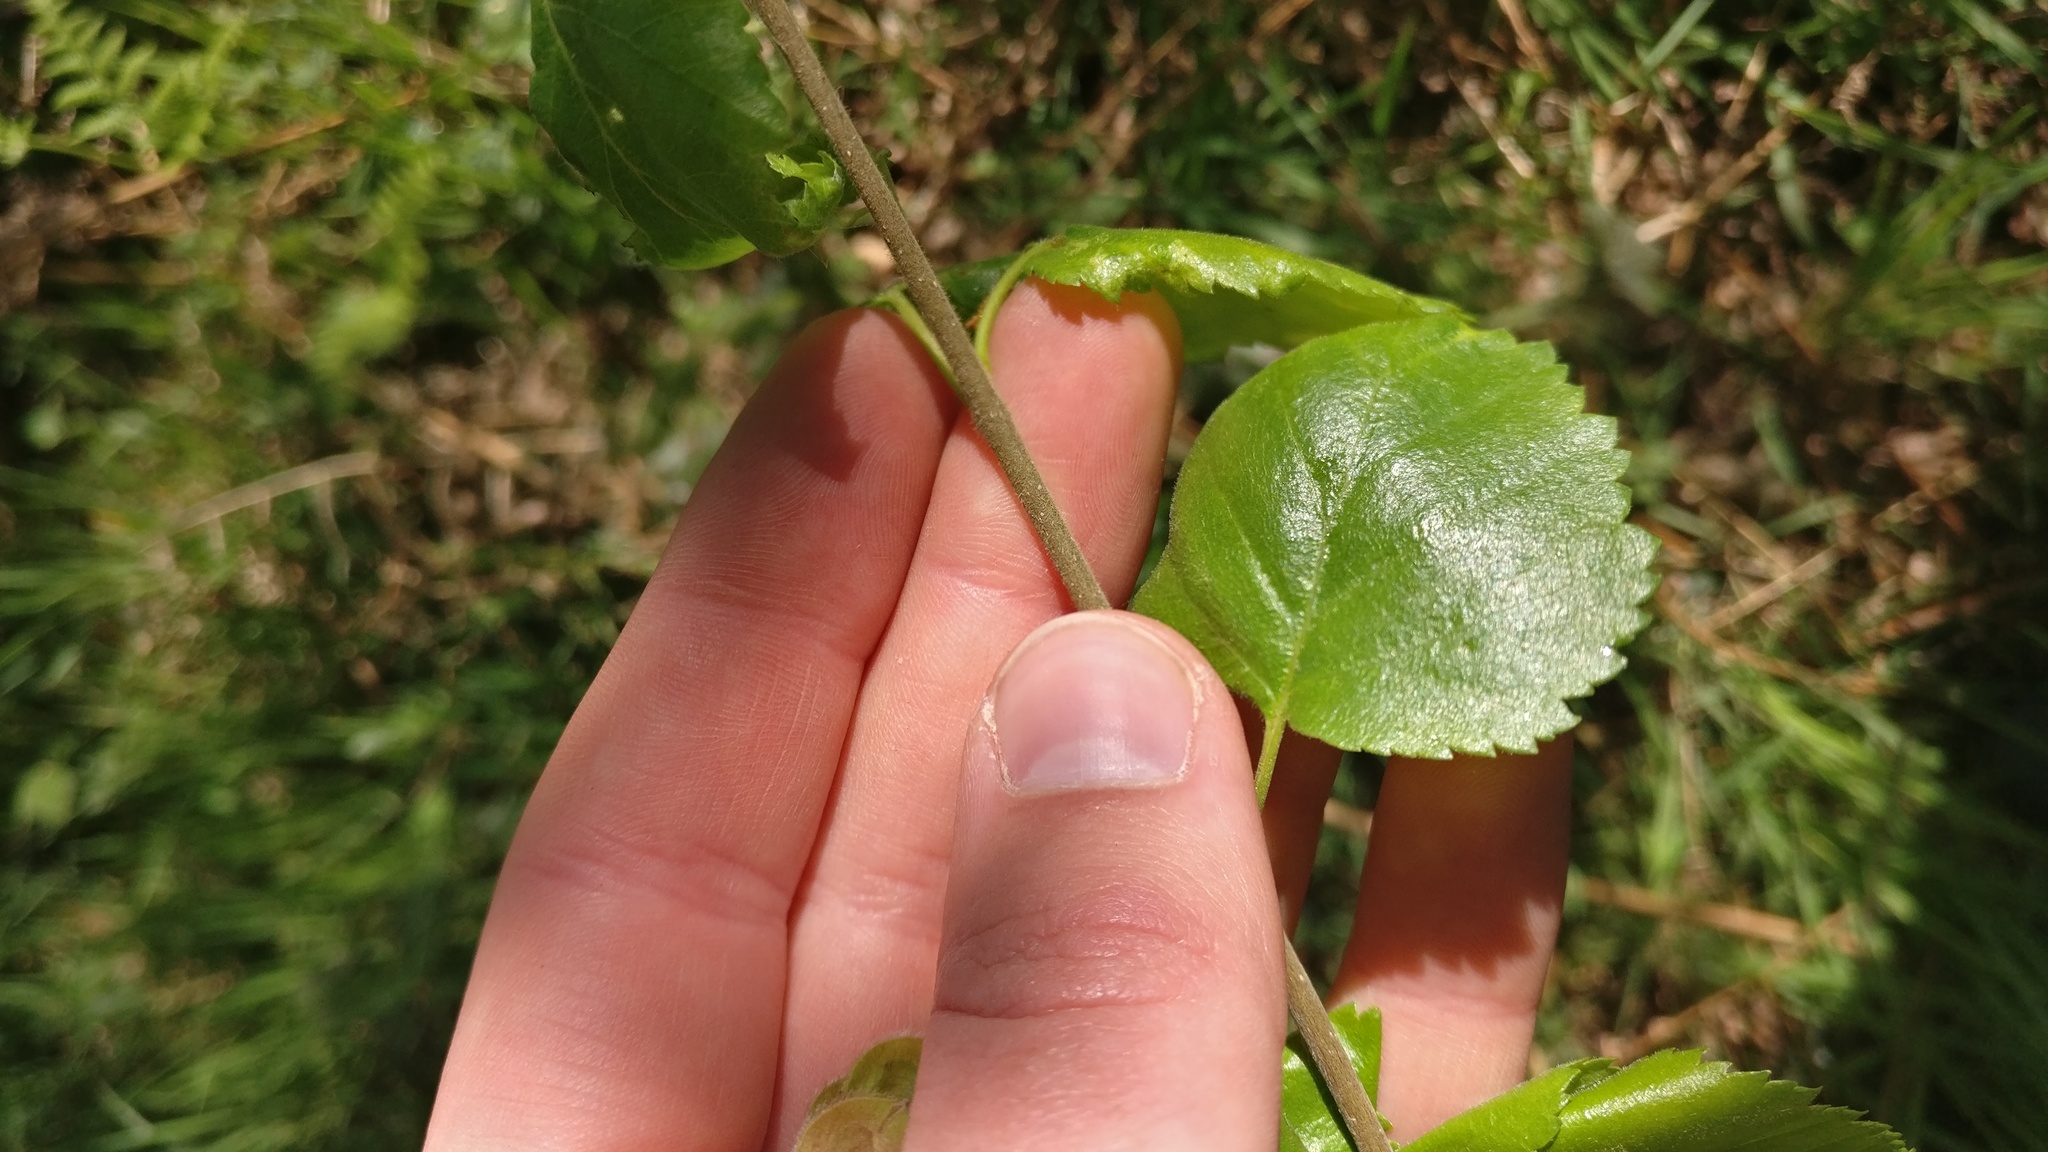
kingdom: Plantae
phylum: Tracheophyta
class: Magnoliopsida
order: Fagales
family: Betulaceae
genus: Betula
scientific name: Betula pubescens
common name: Downy birch
